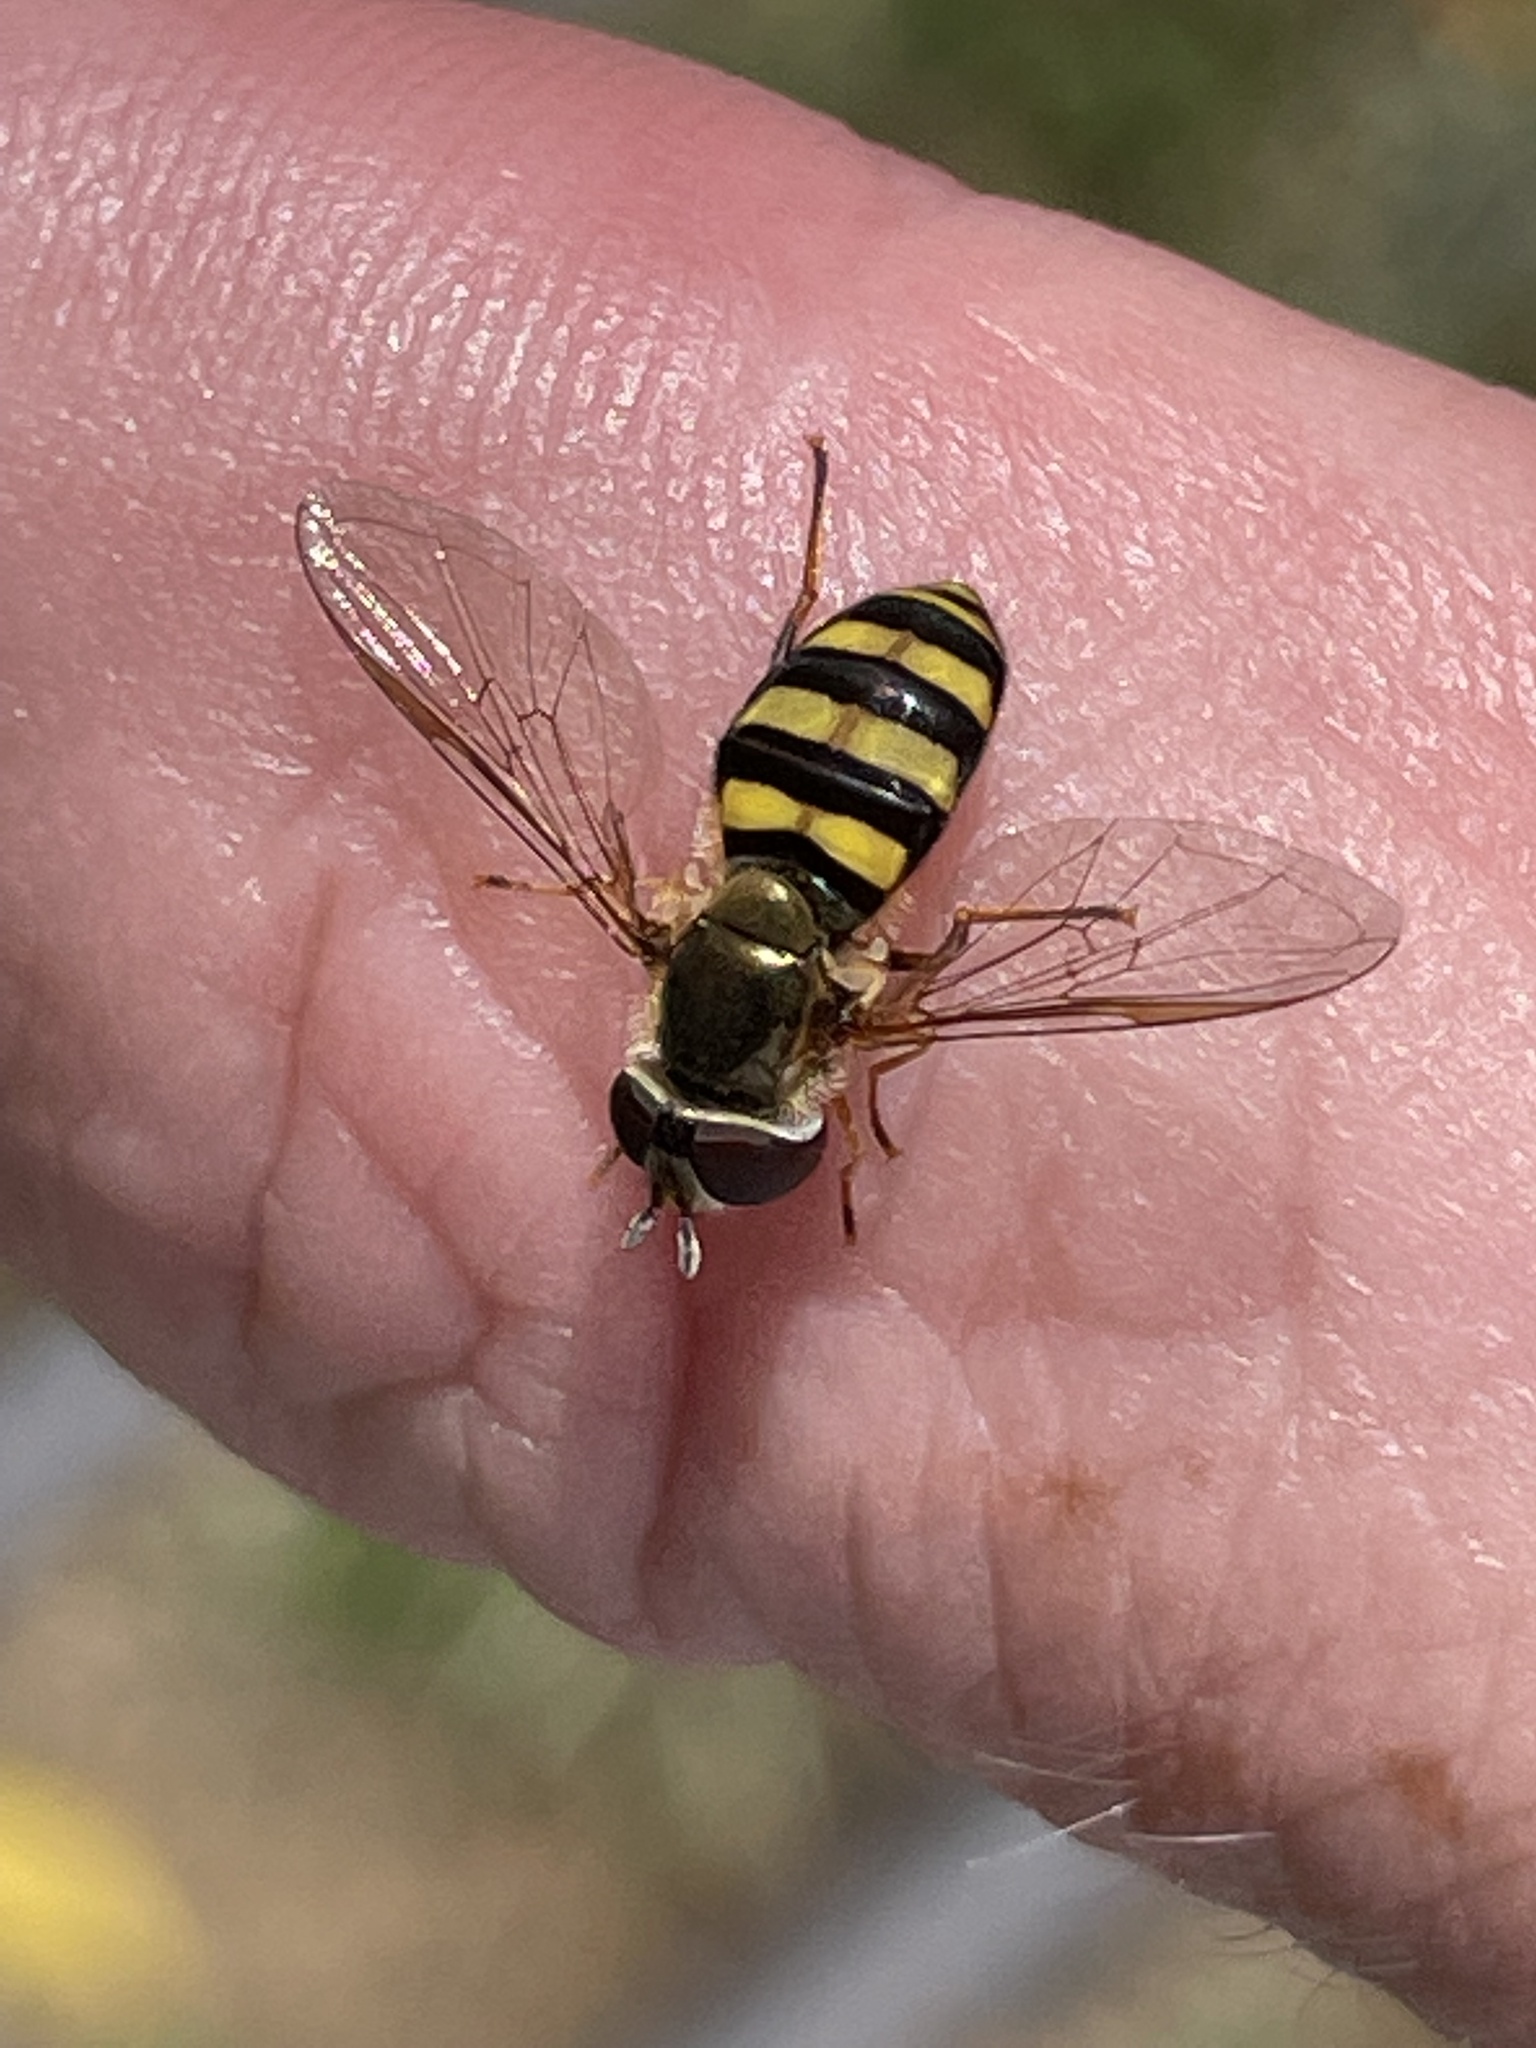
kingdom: Animalia
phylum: Arthropoda
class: Insecta
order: Diptera
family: Syrphidae
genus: Eupeodes
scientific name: Eupeodes
